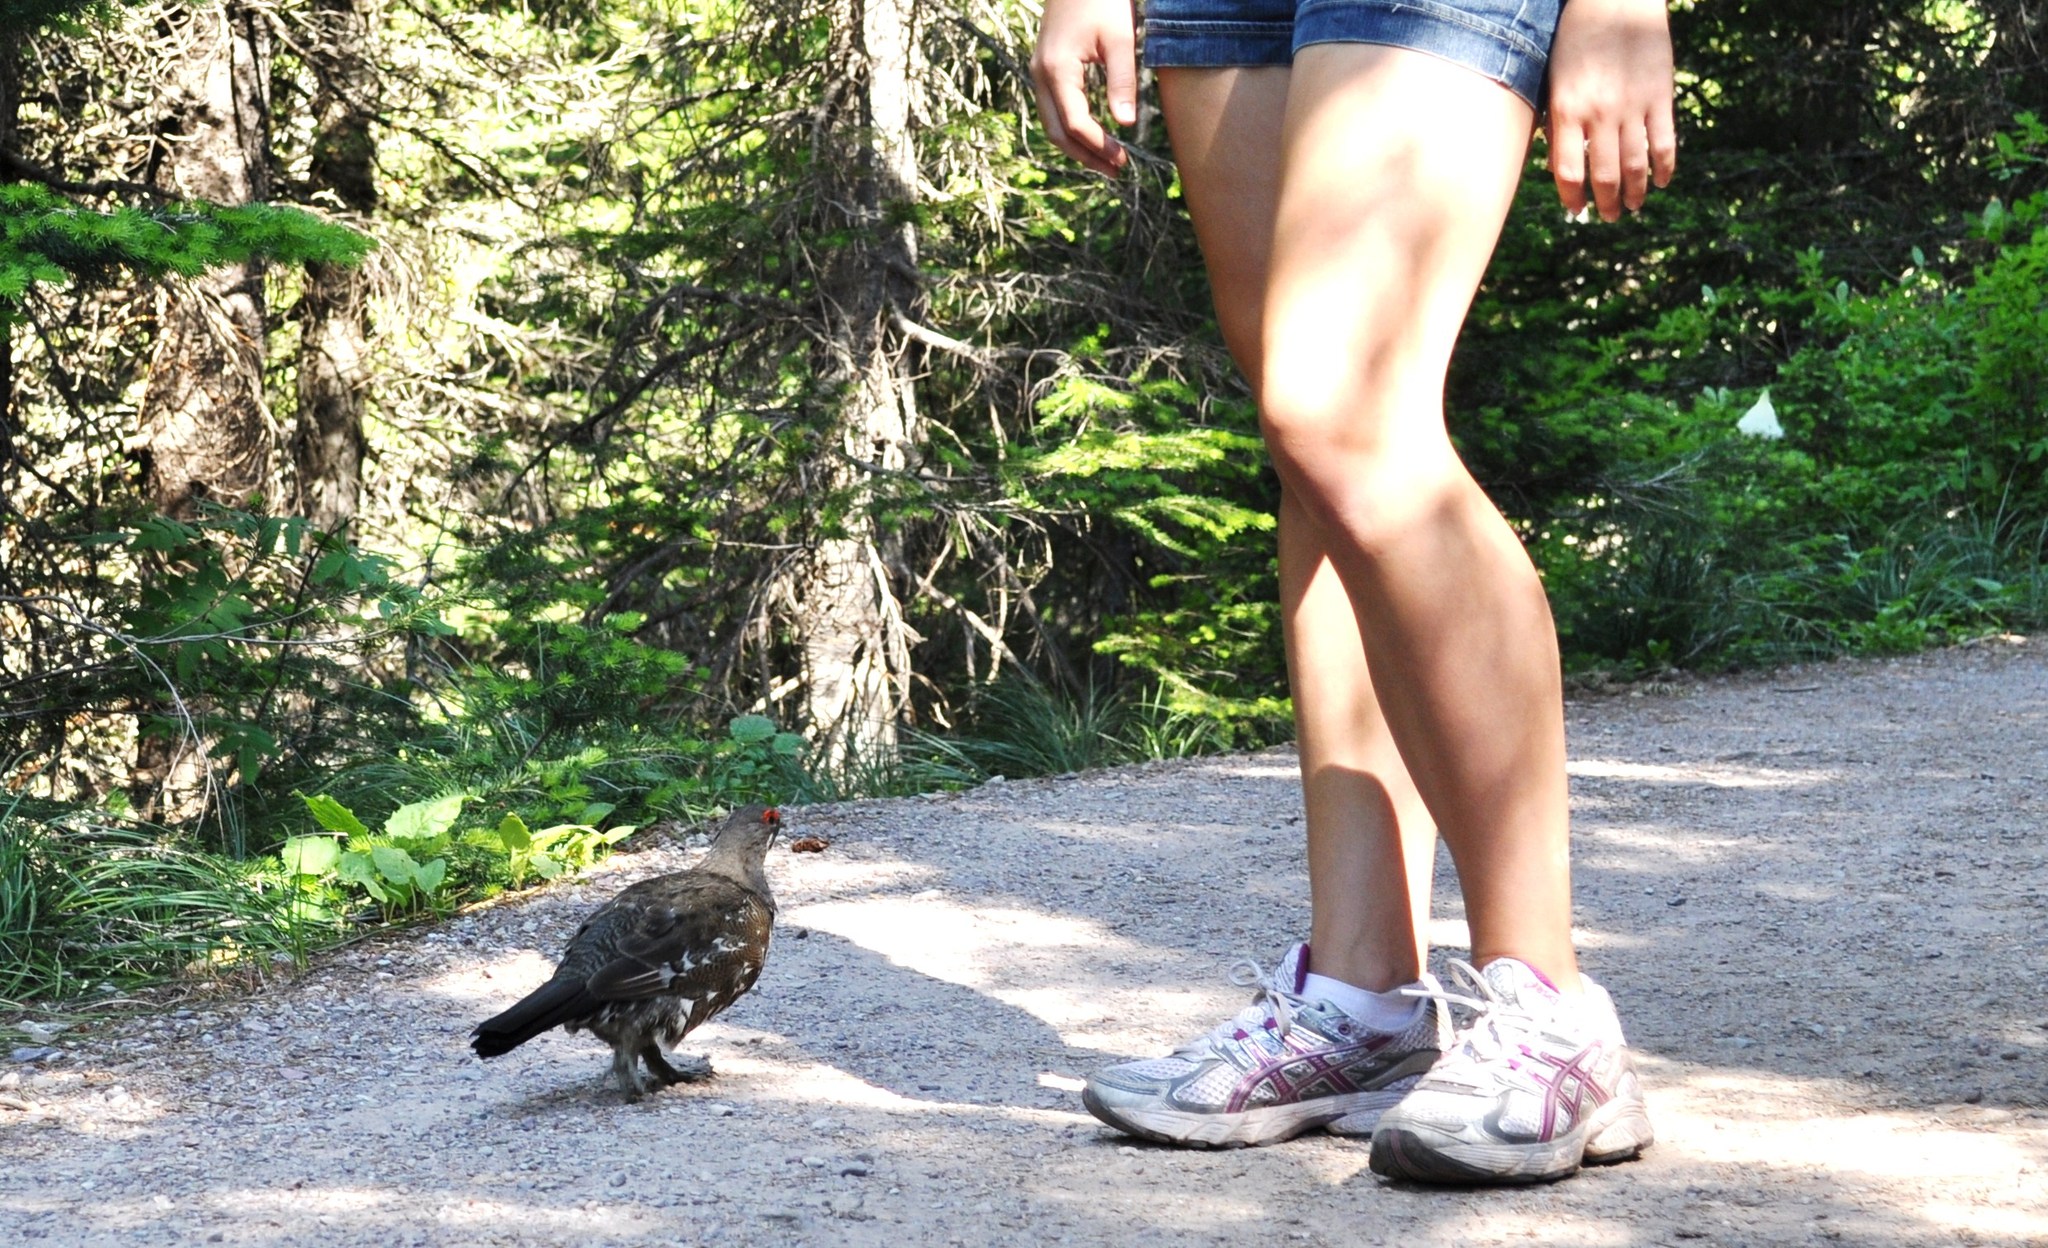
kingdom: Animalia
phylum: Chordata
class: Aves
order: Galliformes
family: Phasianidae
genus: Canachites
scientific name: Canachites canadensis
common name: Spruce grouse
